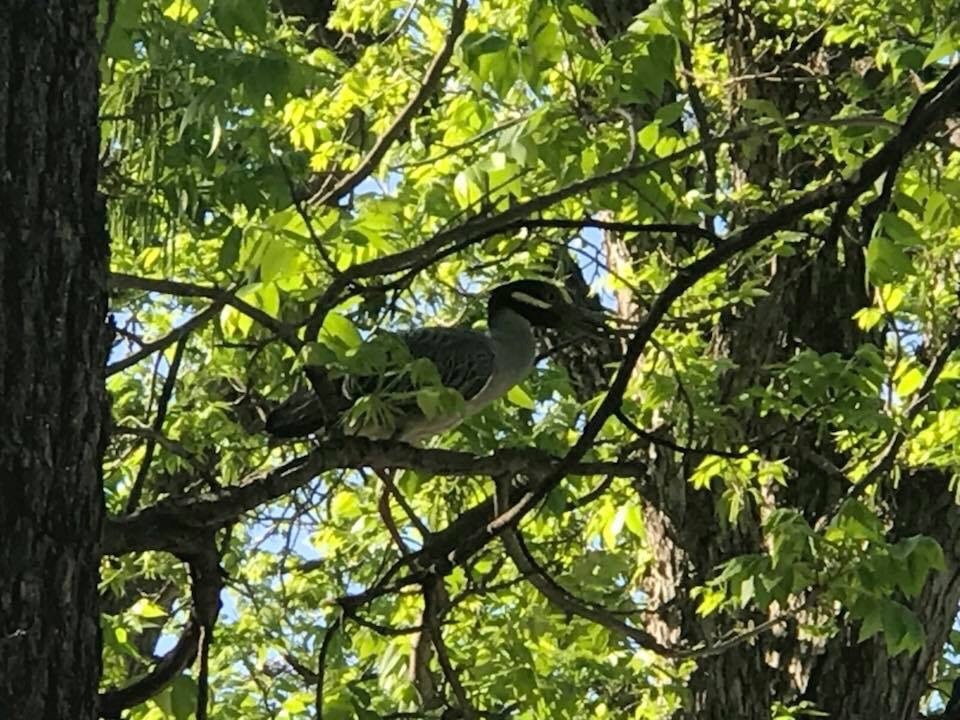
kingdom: Animalia
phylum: Chordata
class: Aves
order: Pelecaniformes
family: Ardeidae
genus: Nyctanassa
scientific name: Nyctanassa violacea
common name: Yellow-crowned night heron
